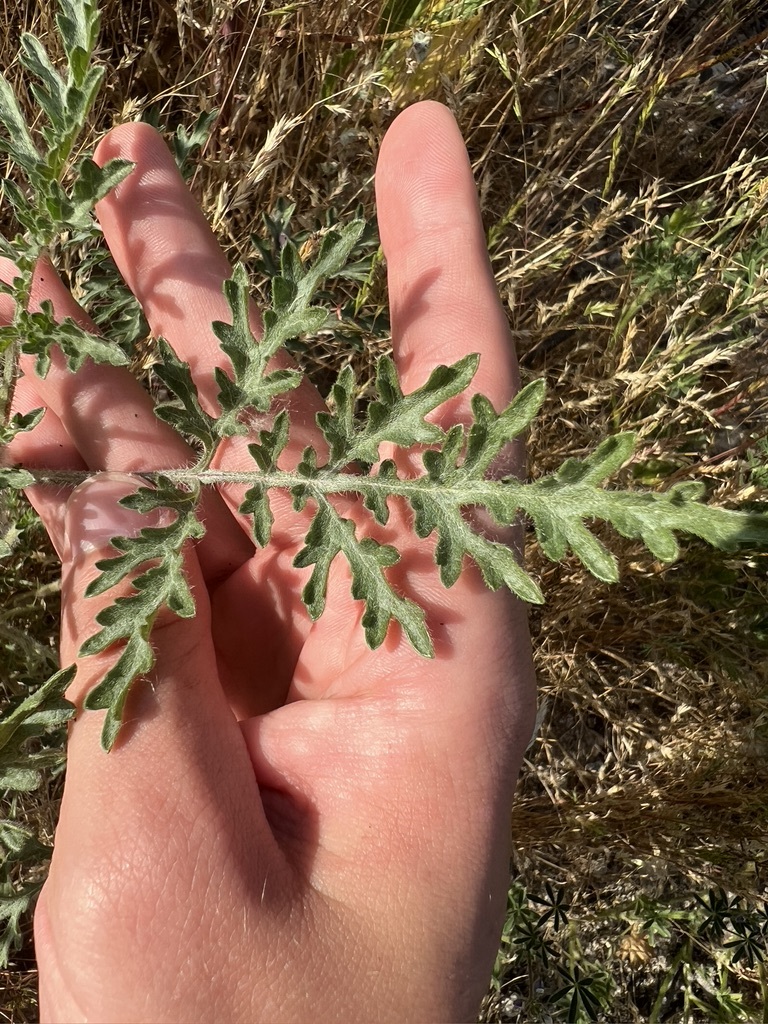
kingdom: Plantae
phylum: Tracheophyta
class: Magnoliopsida
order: Asterales
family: Asteraceae
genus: Ambrosia
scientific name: Ambrosia acanthicarpa
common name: Hooker's bur ragweed
